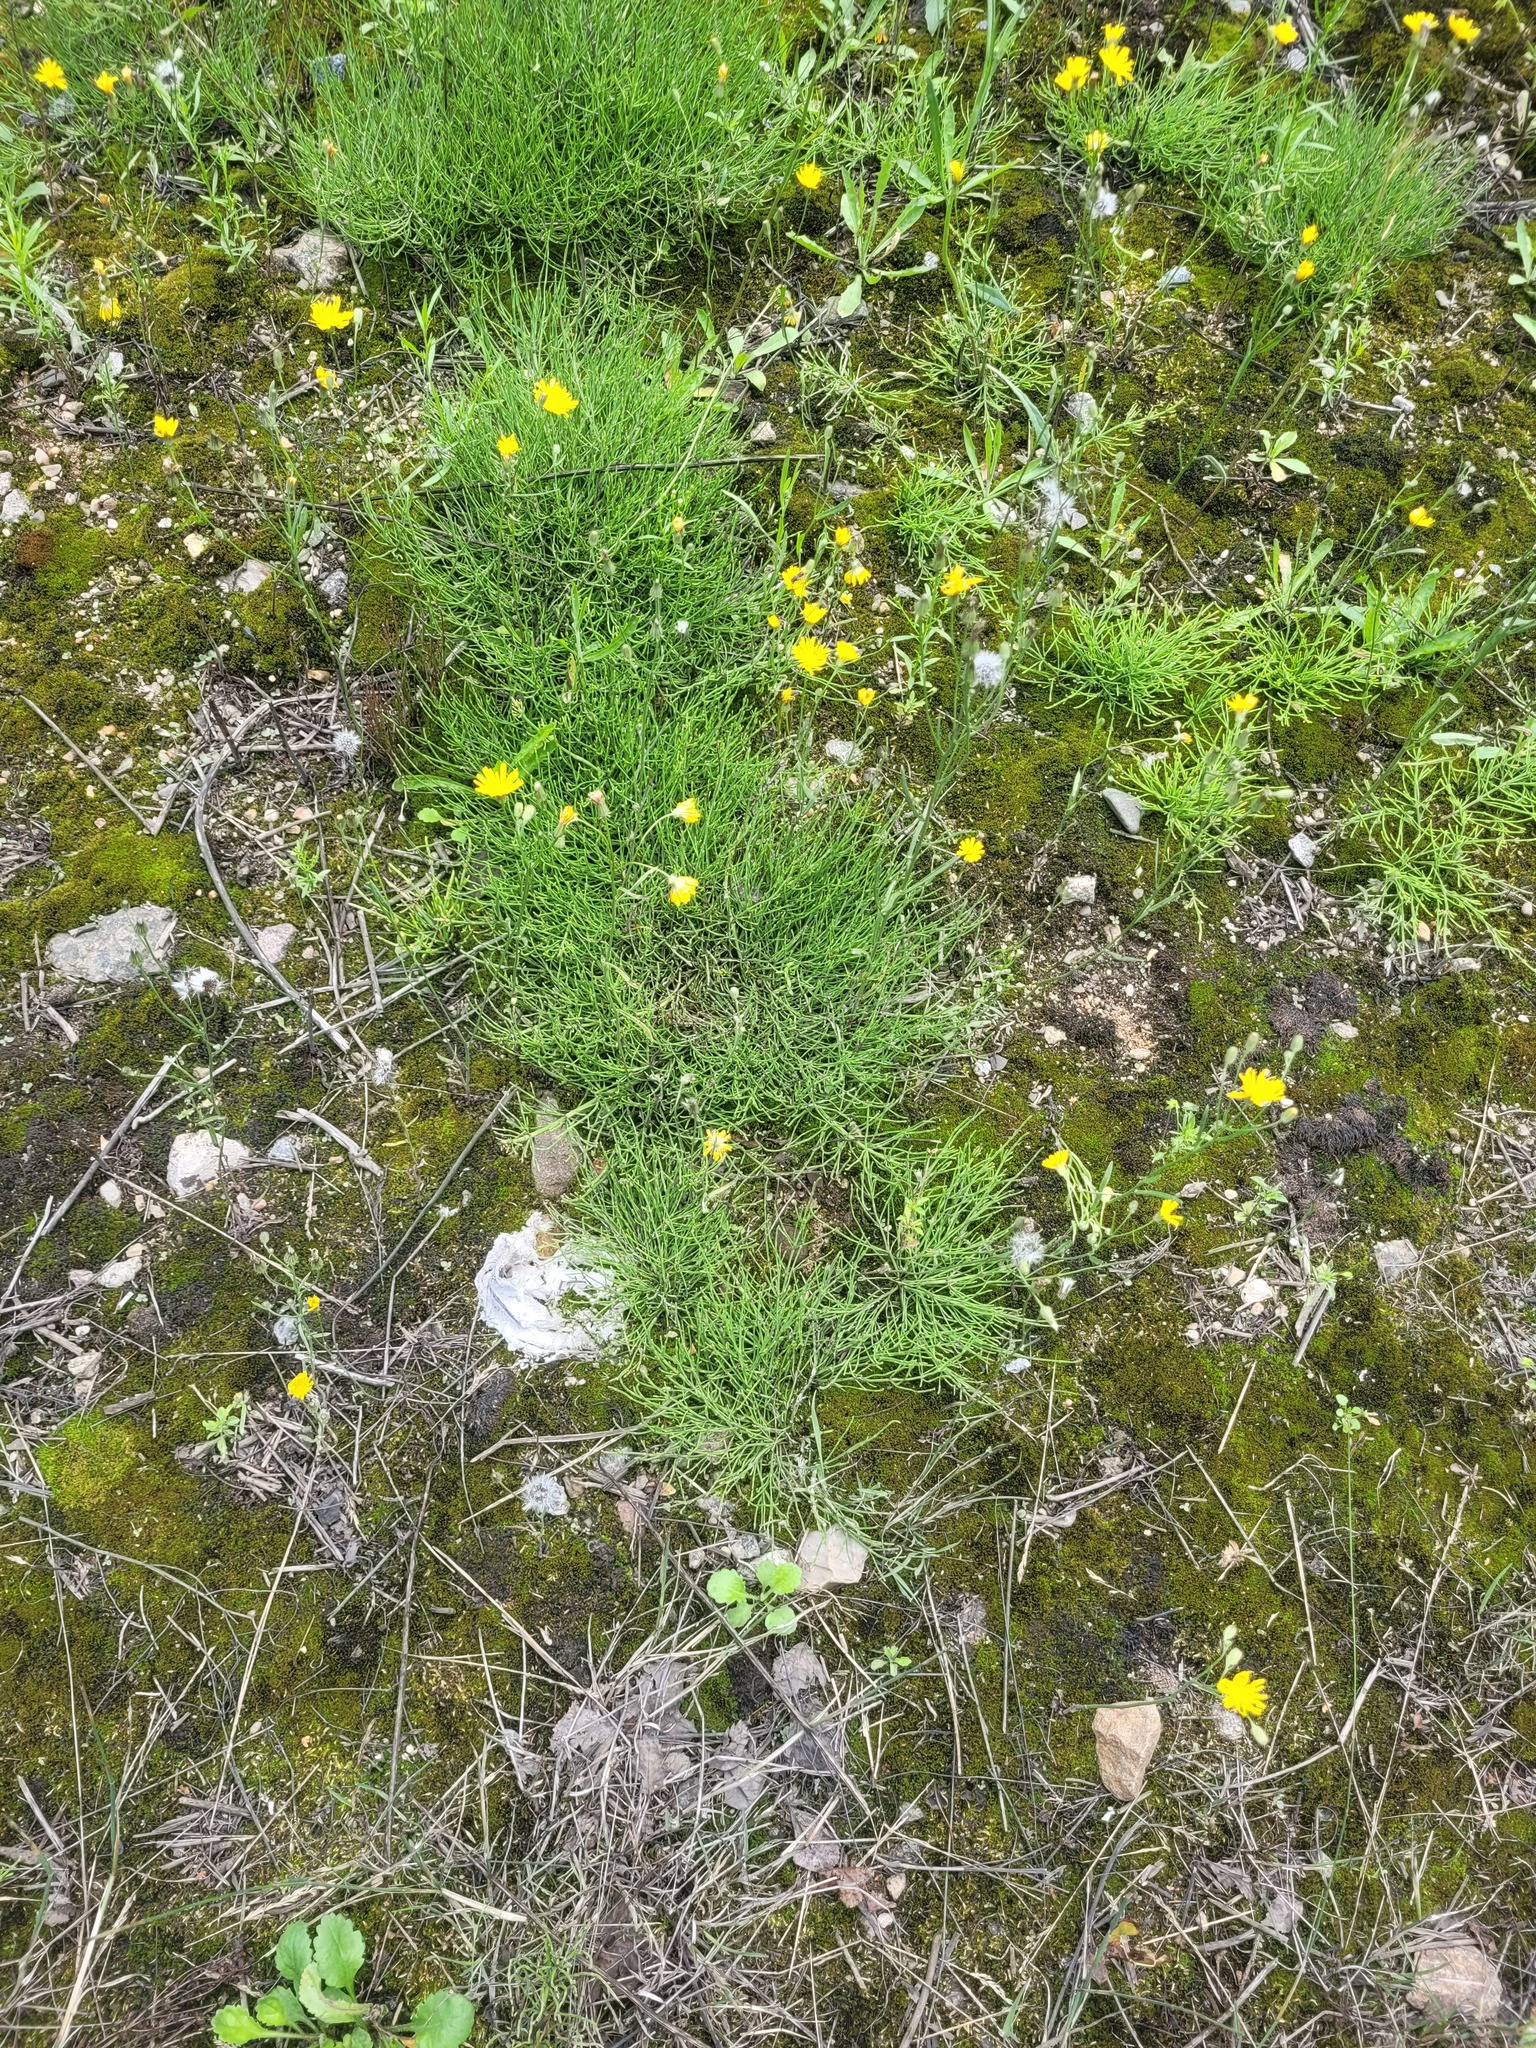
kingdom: Plantae
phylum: Tracheophyta
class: Polypodiopsida
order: Equisetales
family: Equisetaceae
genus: Equisetum
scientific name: Equisetum arvense
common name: Field horsetail
